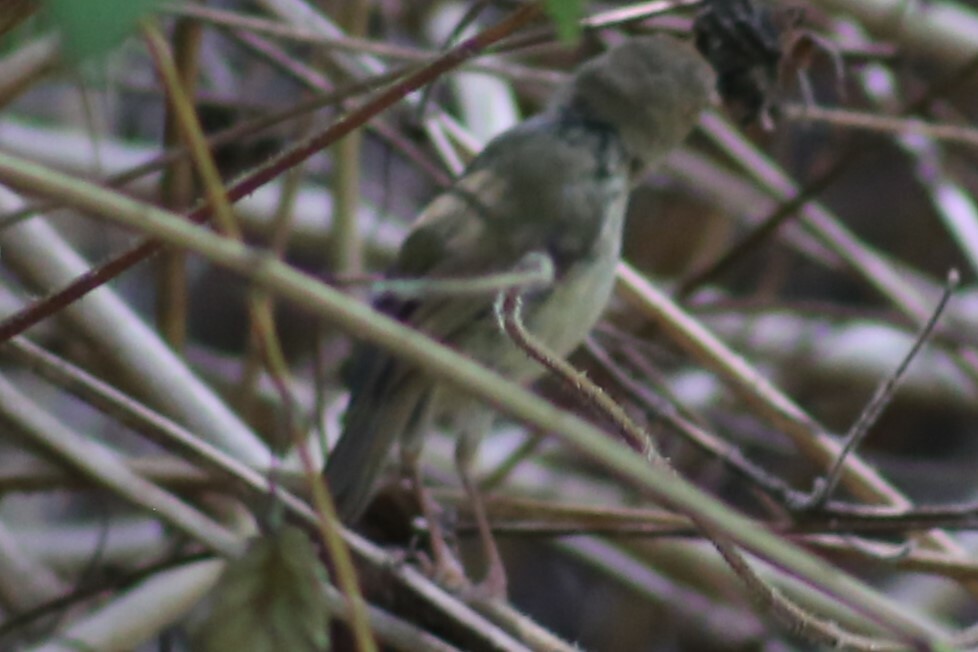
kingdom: Animalia
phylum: Chordata
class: Aves
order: Passeriformes
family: Acanthizidae
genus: Sericornis
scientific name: Sericornis magnirostra
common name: Large-billed scrubwren
